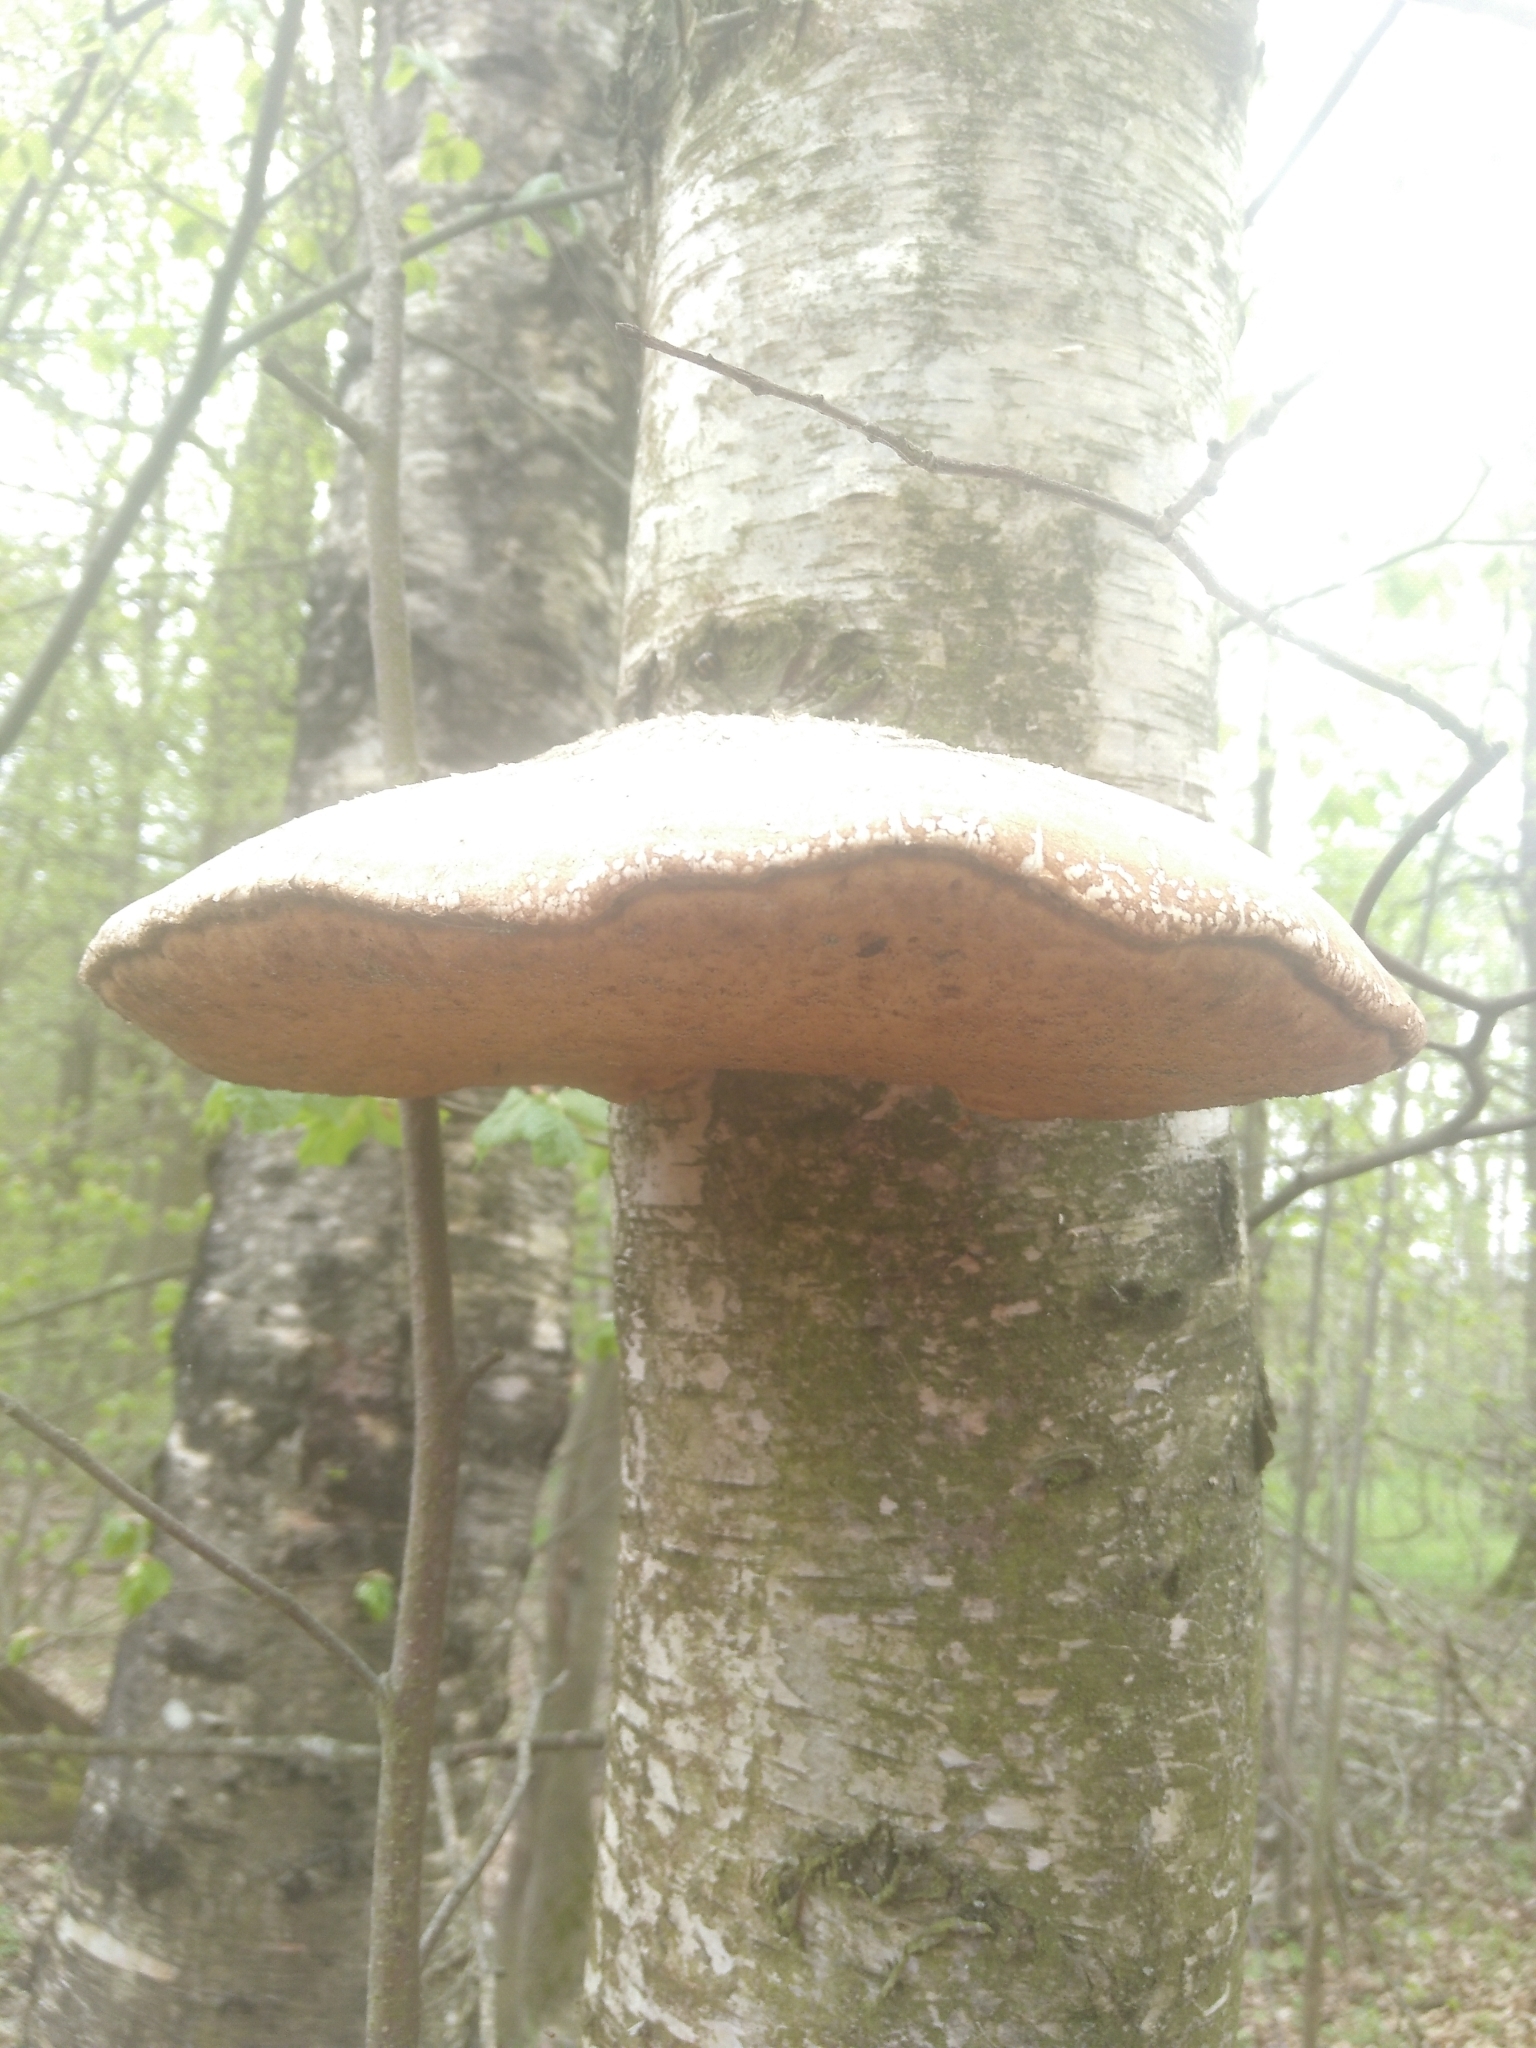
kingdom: Fungi
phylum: Basidiomycota
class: Agaricomycetes
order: Polyporales
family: Fomitopsidaceae
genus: Fomitopsis
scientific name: Fomitopsis betulina
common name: Birch polypore
